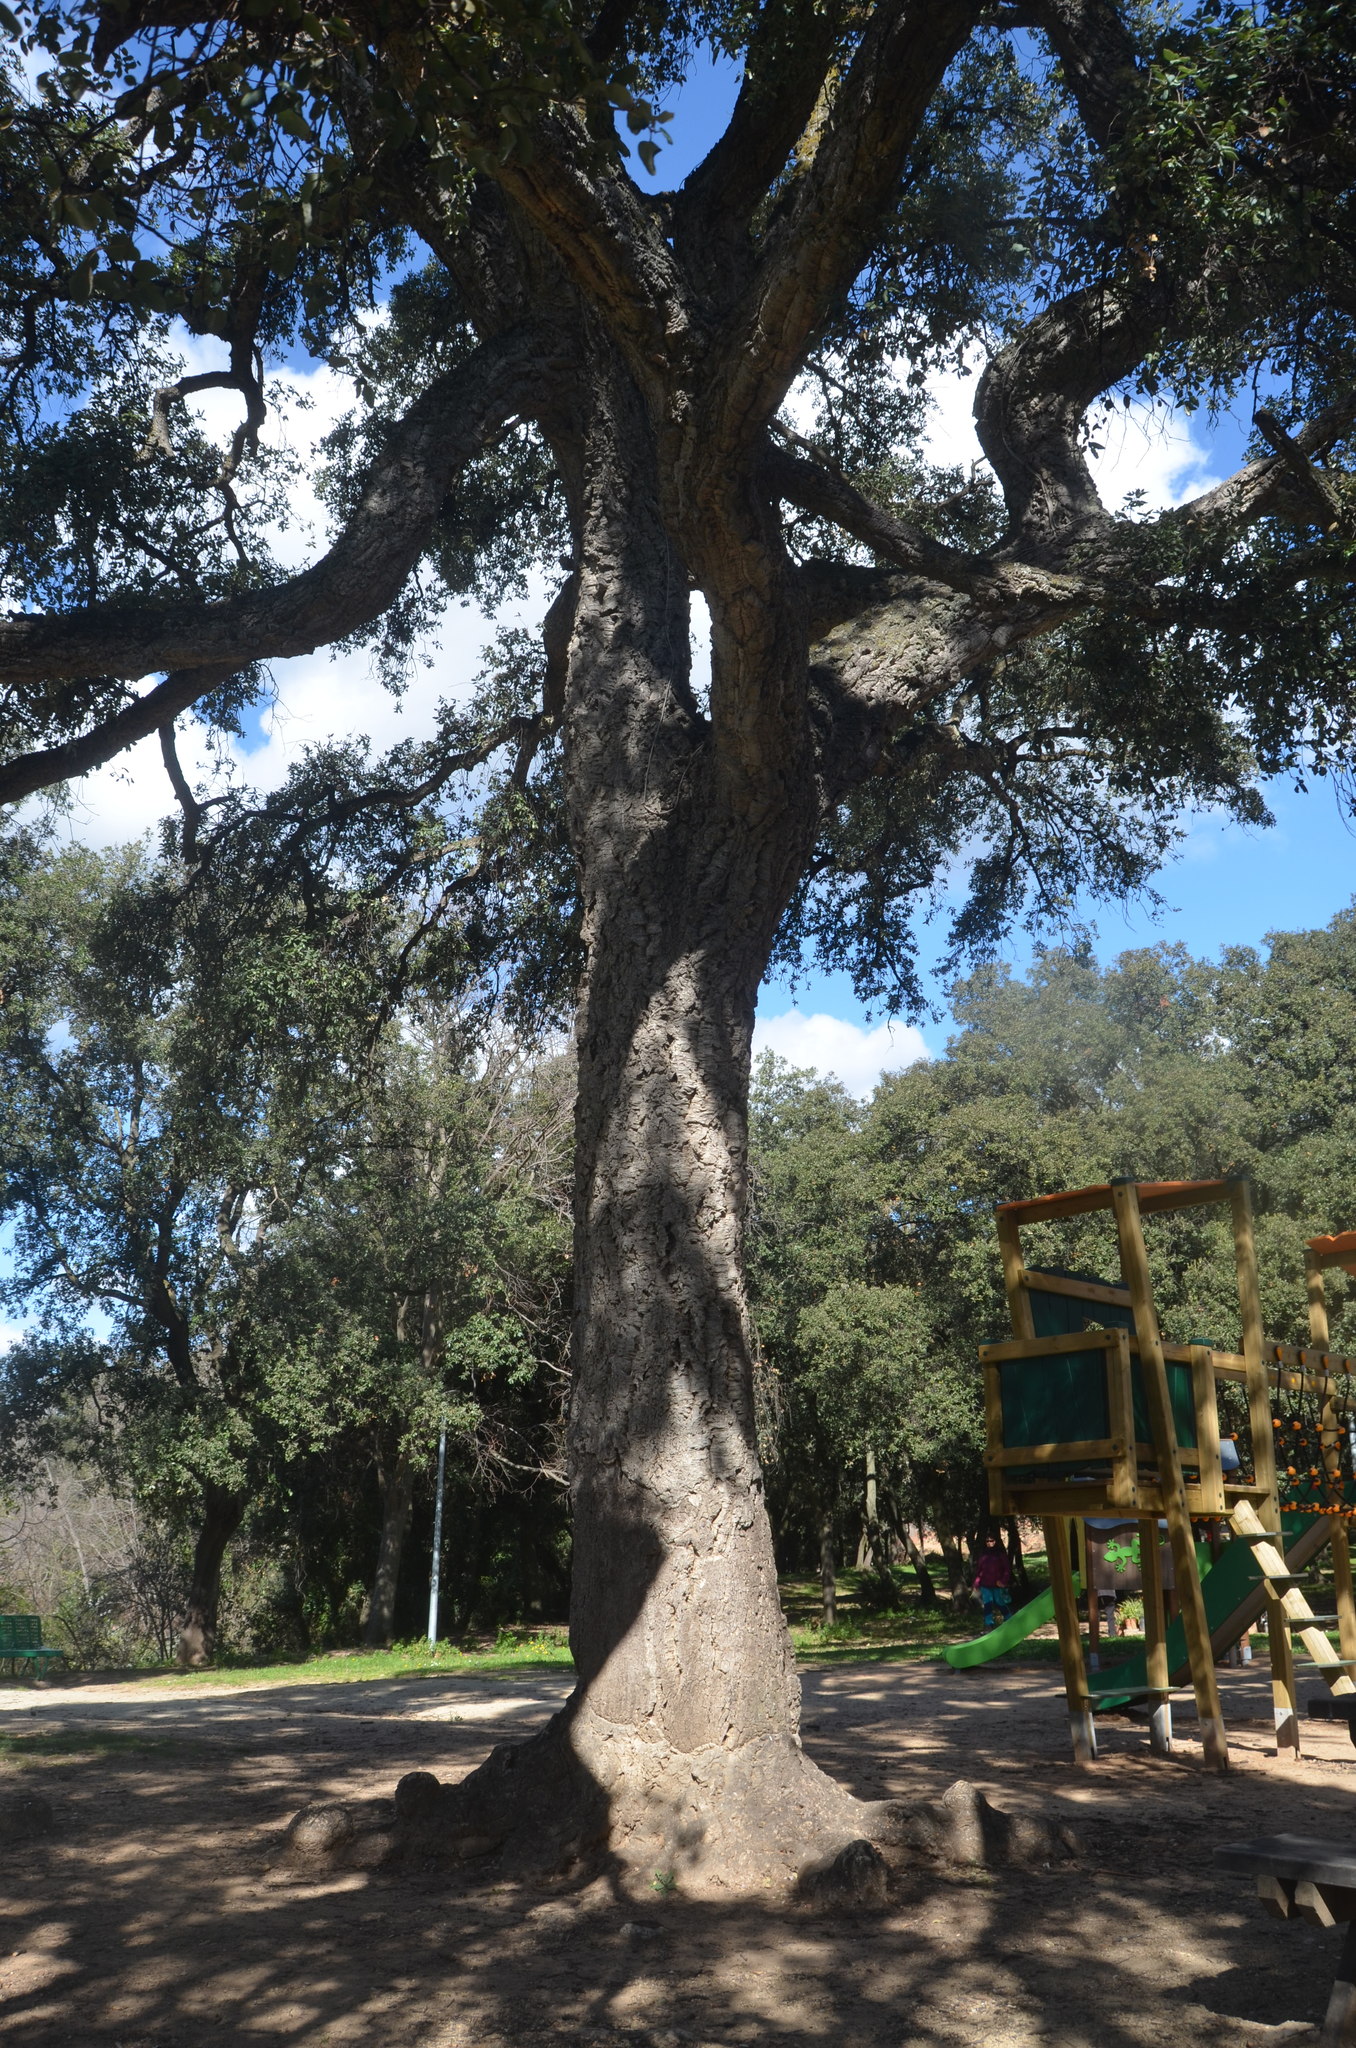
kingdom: Plantae
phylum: Tracheophyta
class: Magnoliopsida
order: Fagales
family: Fagaceae
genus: Quercus
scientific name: Quercus suber
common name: Cork oak
